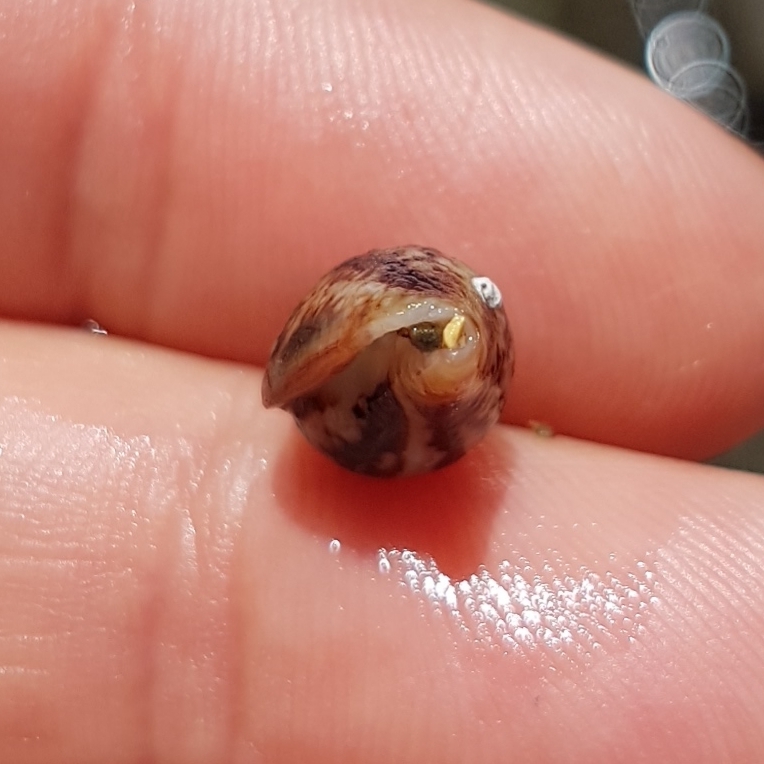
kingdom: Animalia
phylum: Mollusca
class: Gastropoda
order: Neogastropoda
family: Columbellidae
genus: Columbella
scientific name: Columbella rustica
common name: Rustic dove shell
